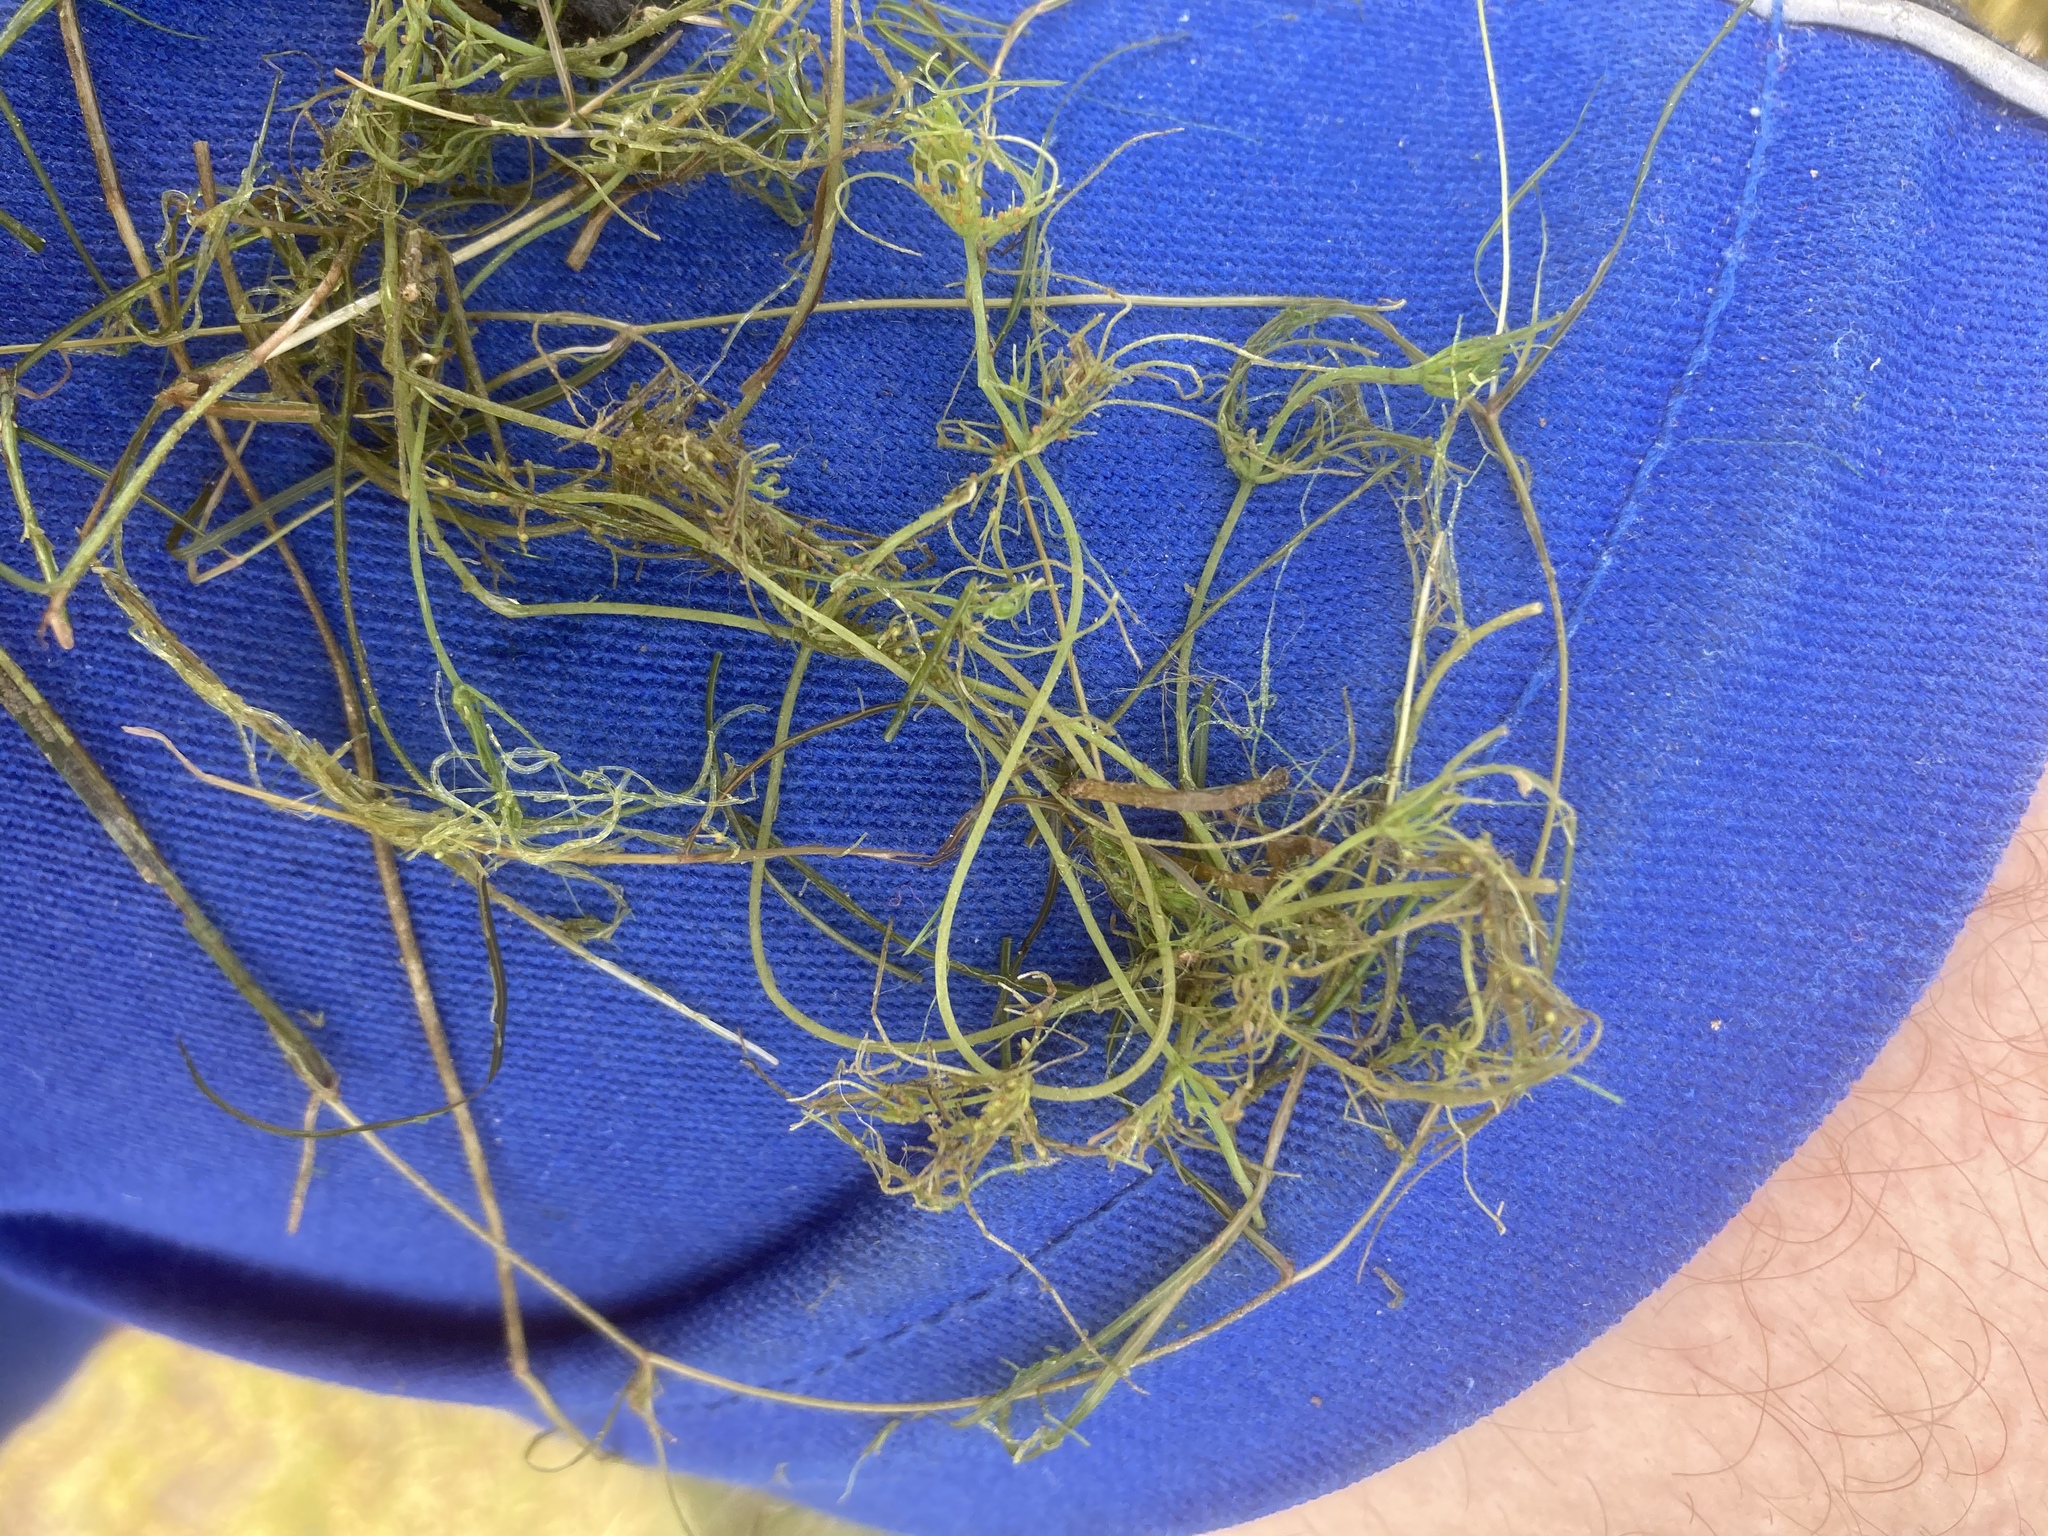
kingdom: Plantae
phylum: Charophyta
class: Charophyceae
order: Charales
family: Characeae
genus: Chara
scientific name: Chara vulgaris
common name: Common stonewort
